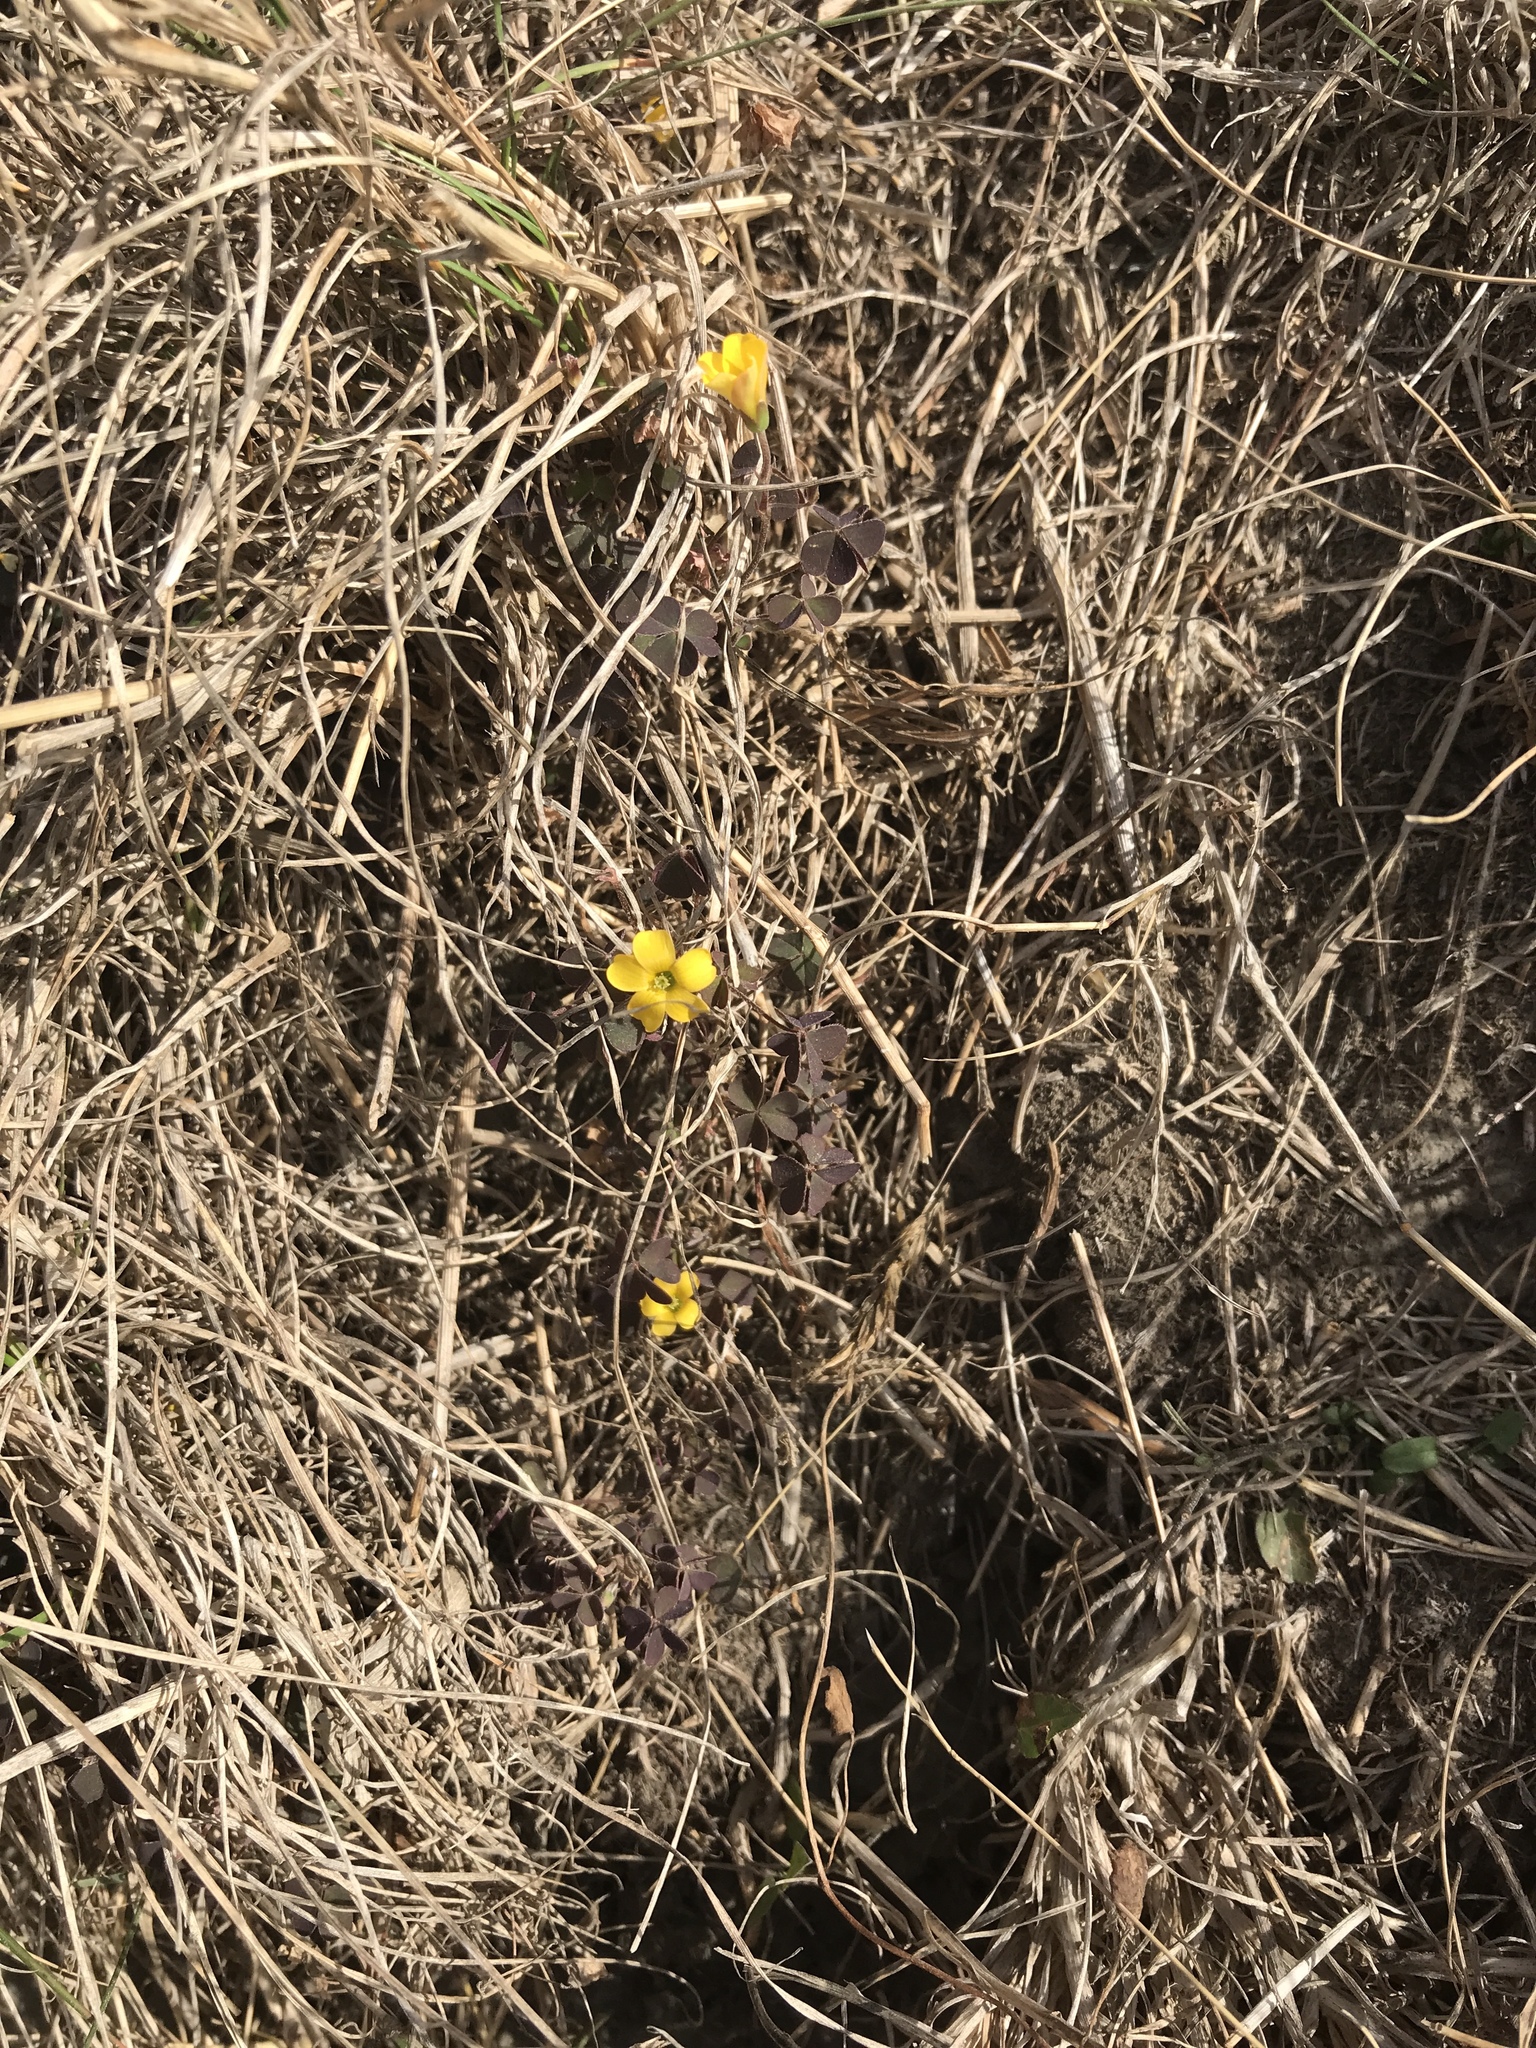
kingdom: Plantae
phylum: Tracheophyta
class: Magnoliopsida
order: Oxalidales
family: Oxalidaceae
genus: Oxalis
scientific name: Oxalis exilis
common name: Least yellow-sorrel
